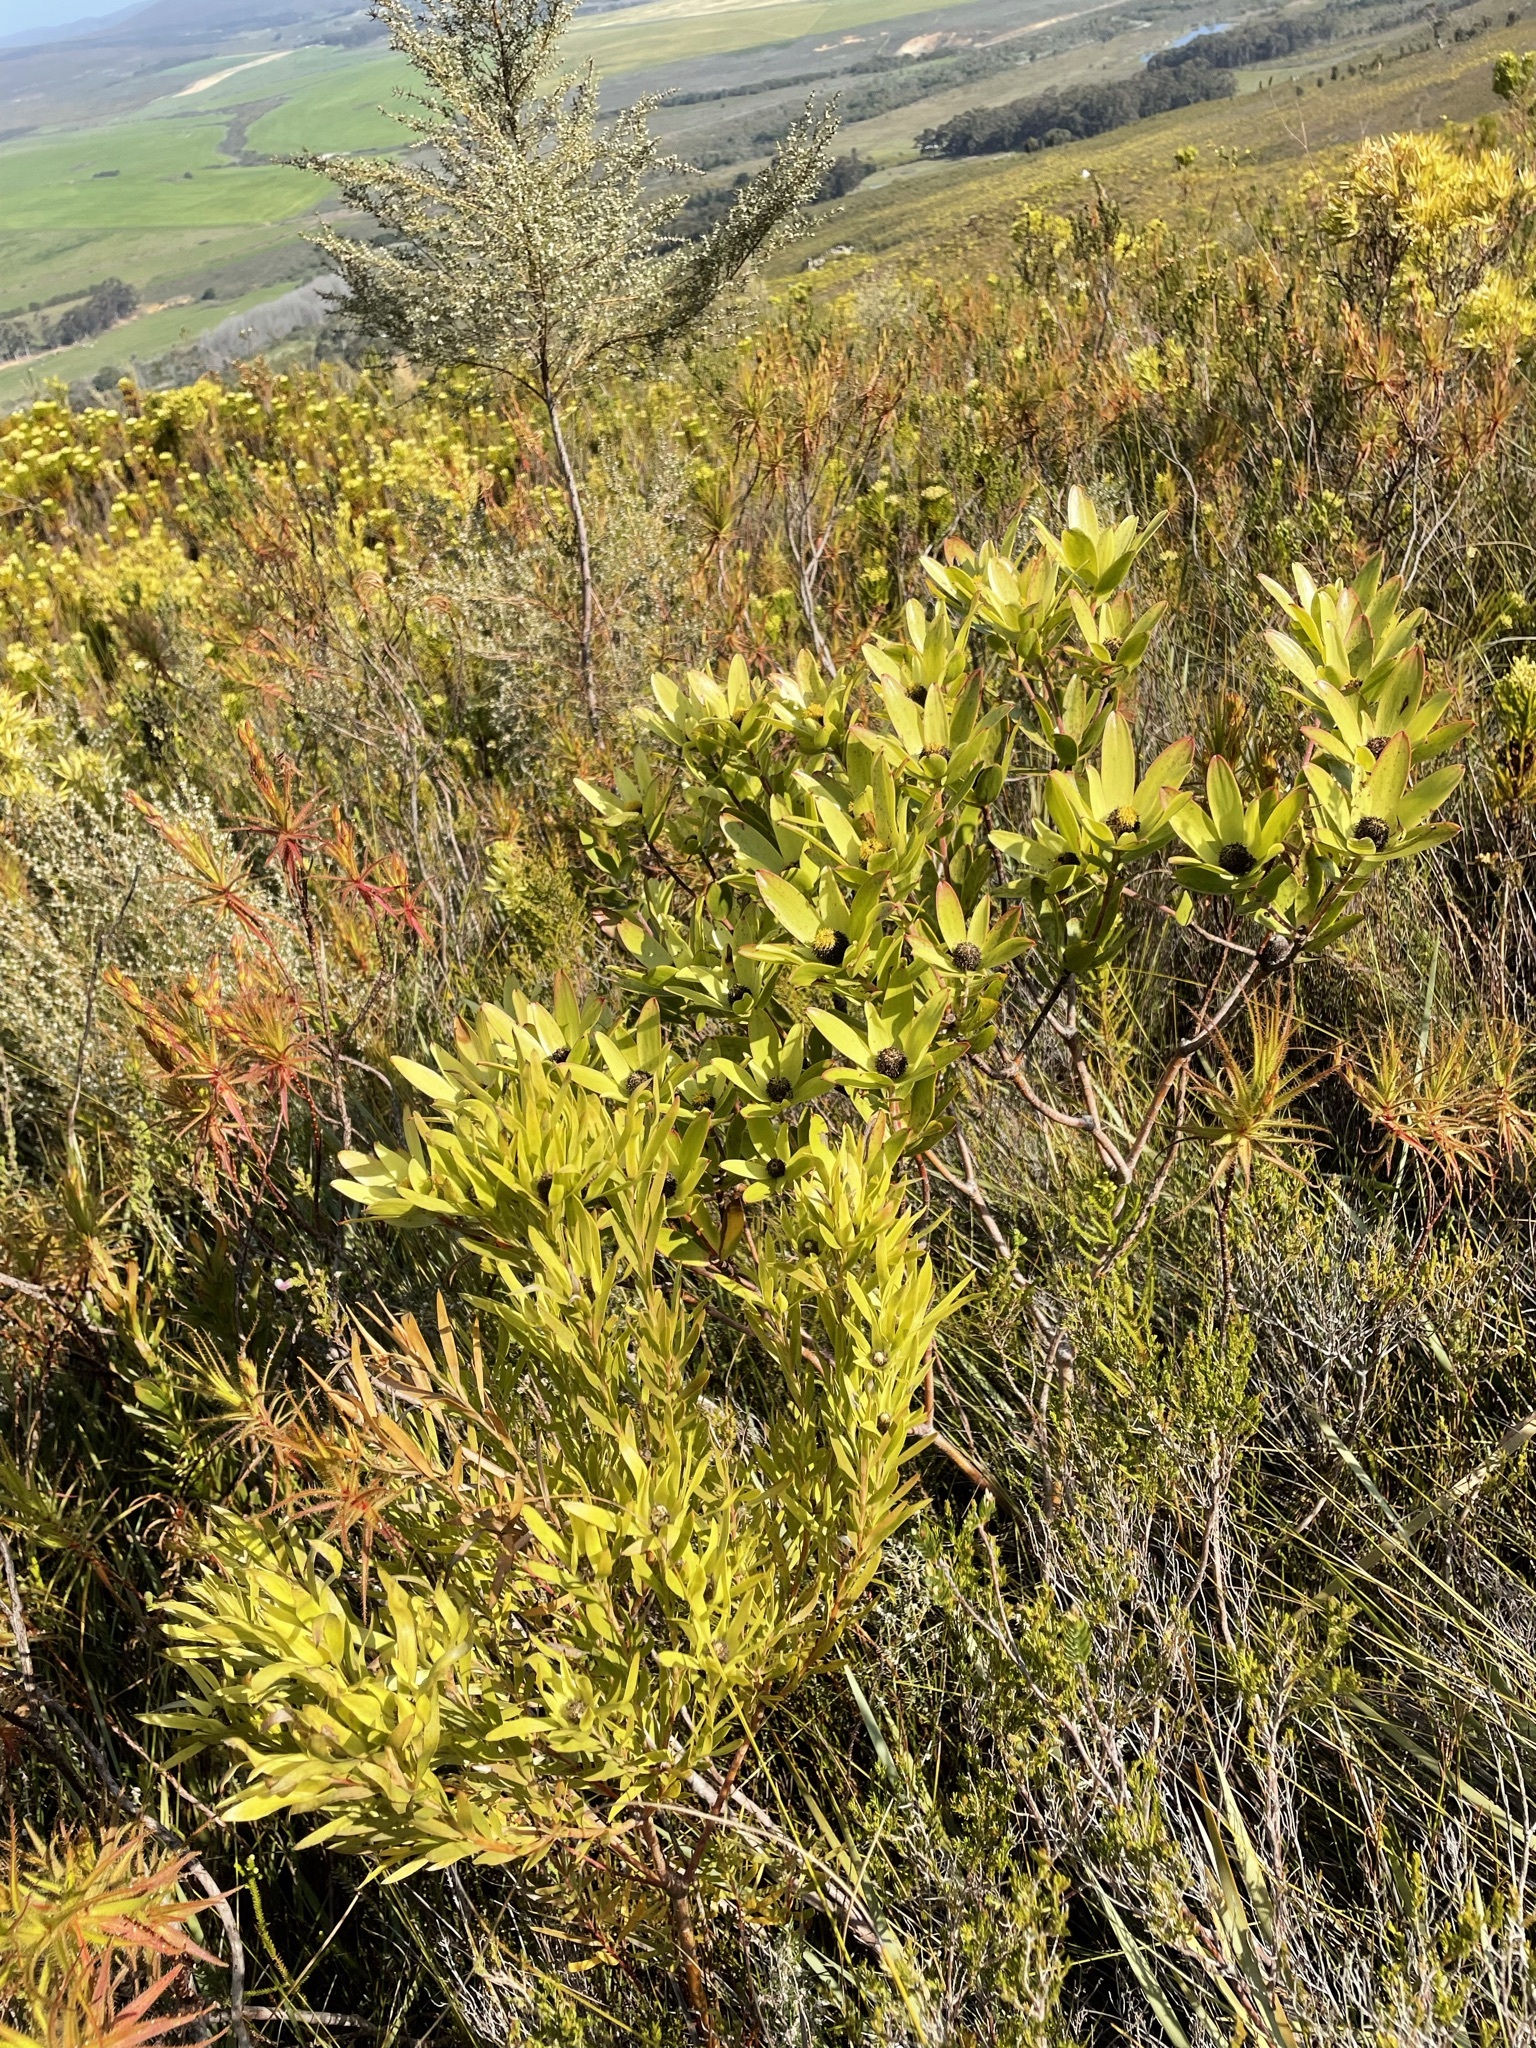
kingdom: Plantae
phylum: Tracheophyta
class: Magnoliopsida
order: Proteales
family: Proteaceae
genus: Leucadendron
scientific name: Leucadendron gandogeri
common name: Broad-leaf conebush
